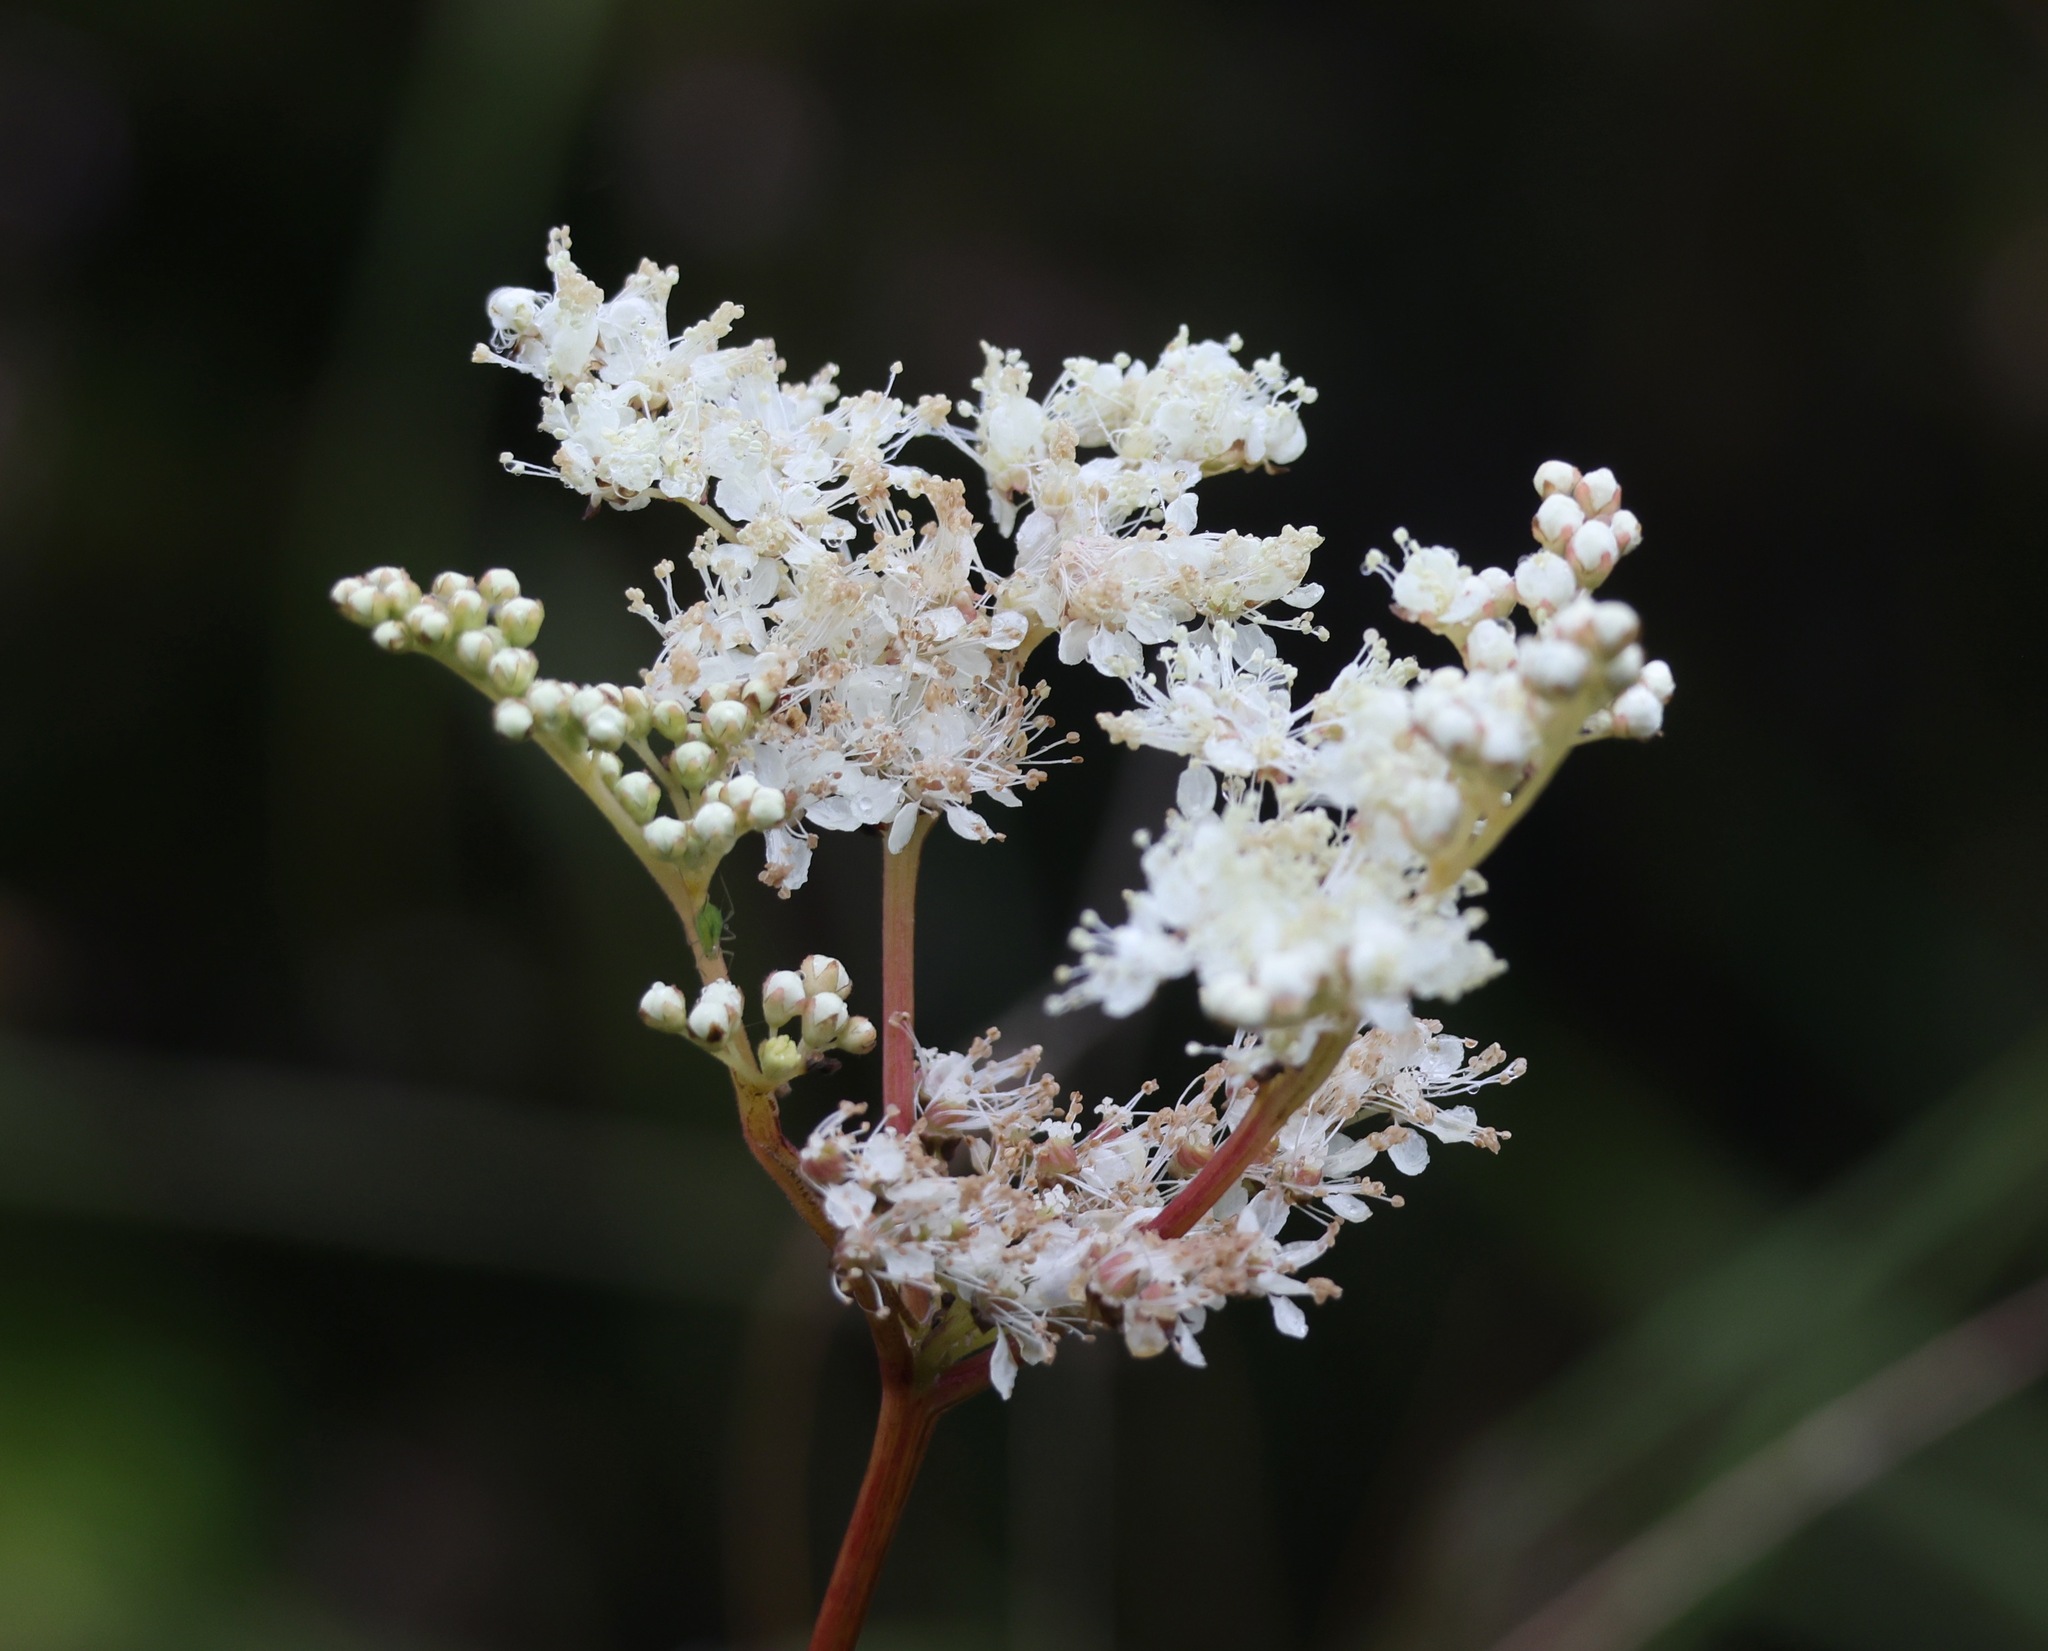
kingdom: Plantae
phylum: Tracheophyta
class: Magnoliopsida
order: Rosales
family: Rosaceae
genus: Filipendula
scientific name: Filipendula ulmaria
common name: Meadowsweet
